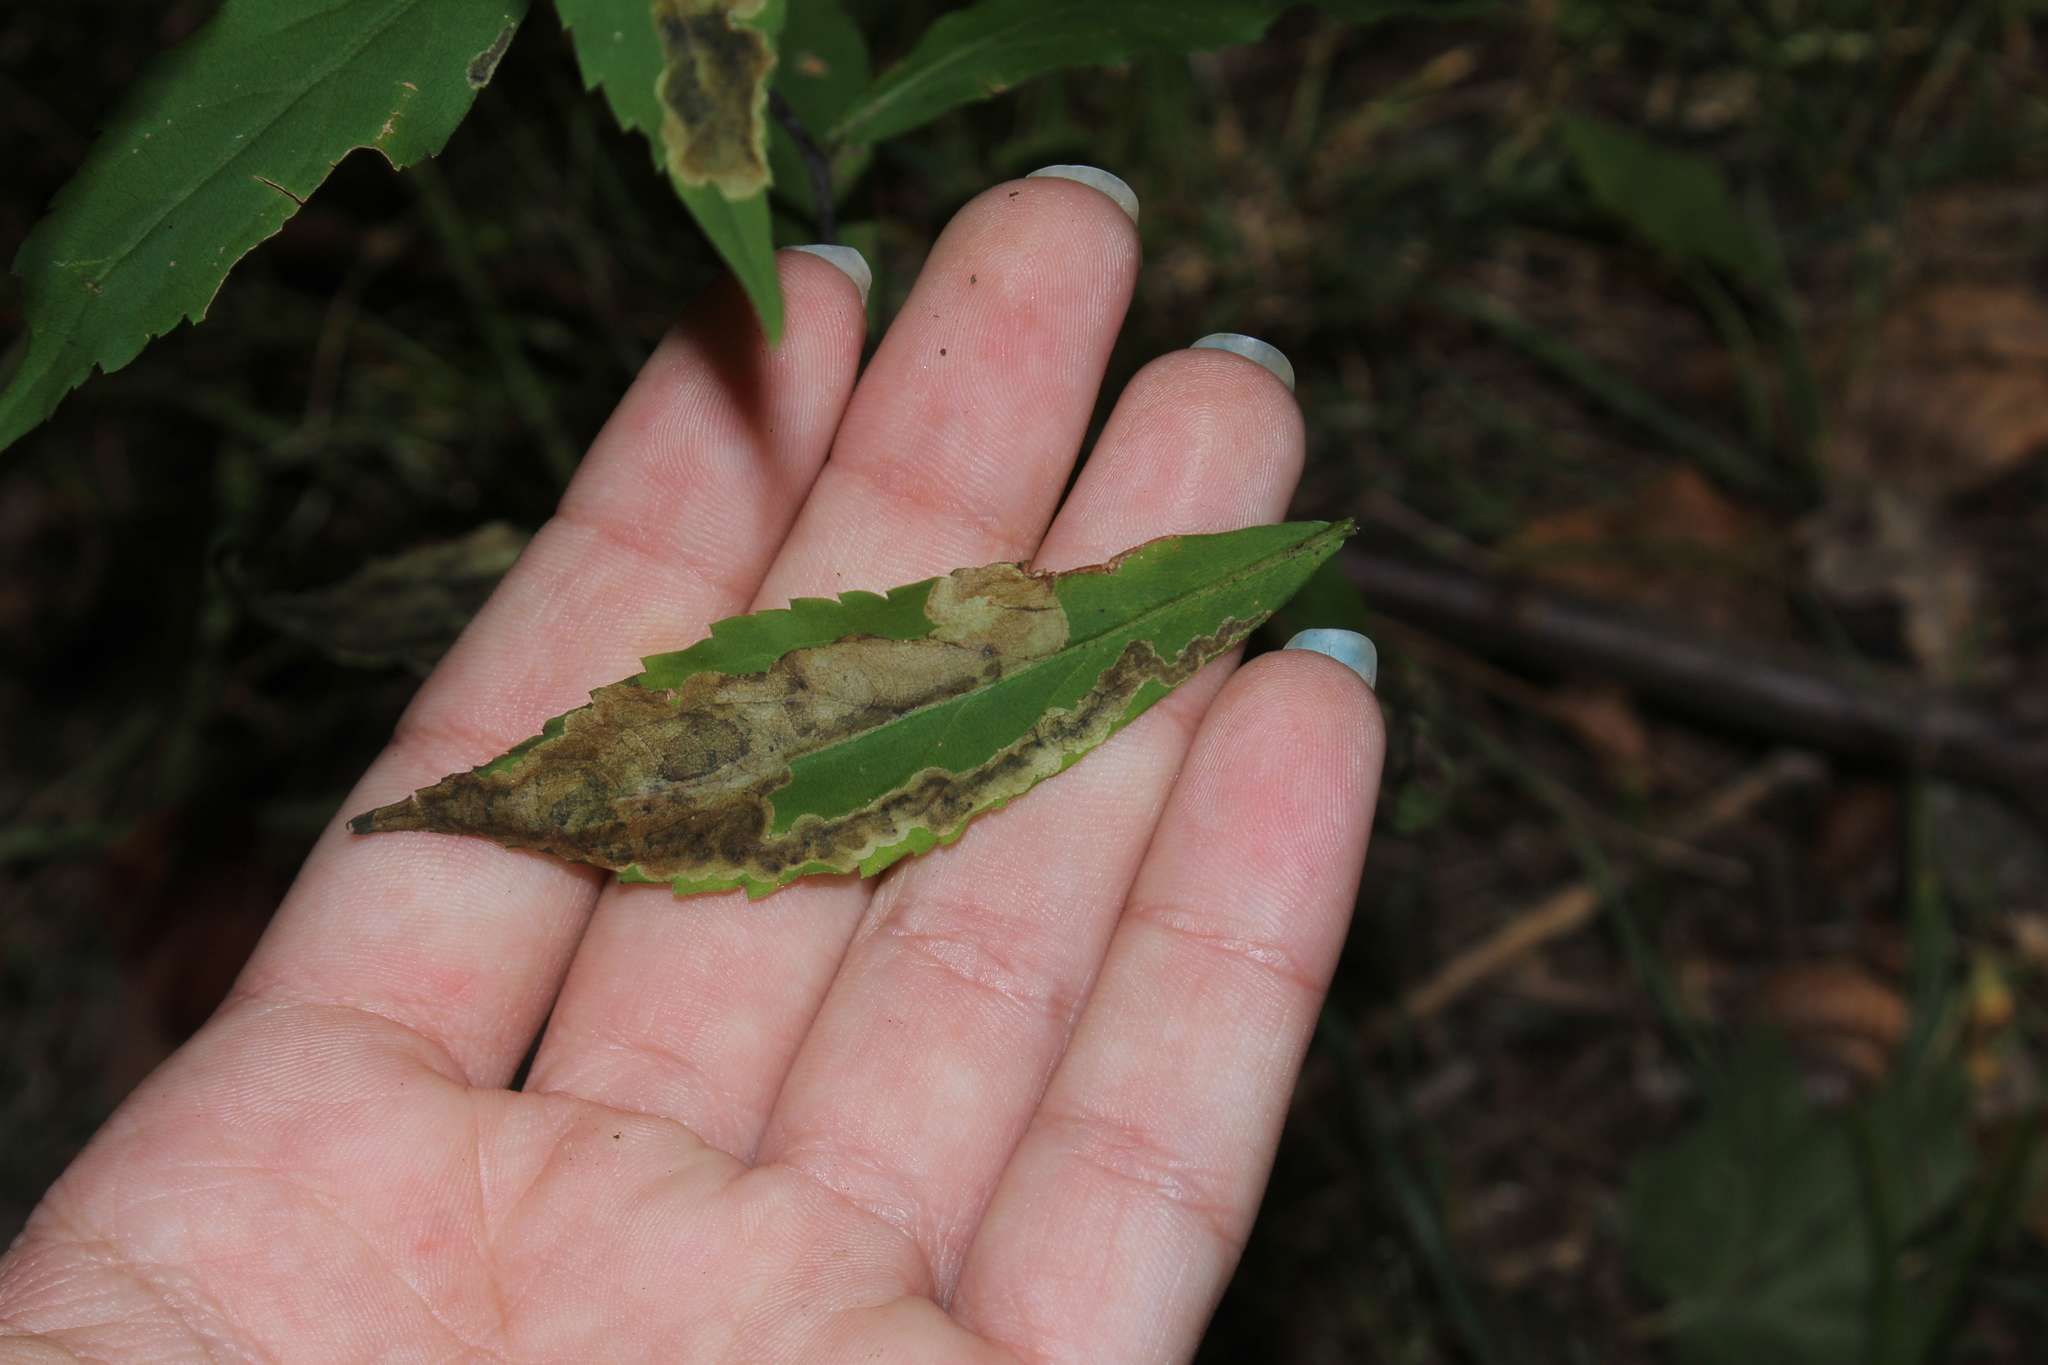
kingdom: Animalia
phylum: Arthropoda
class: Insecta
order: Diptera
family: Agromyzidae
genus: Nemorimyza
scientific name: Nemorimyza posticata
